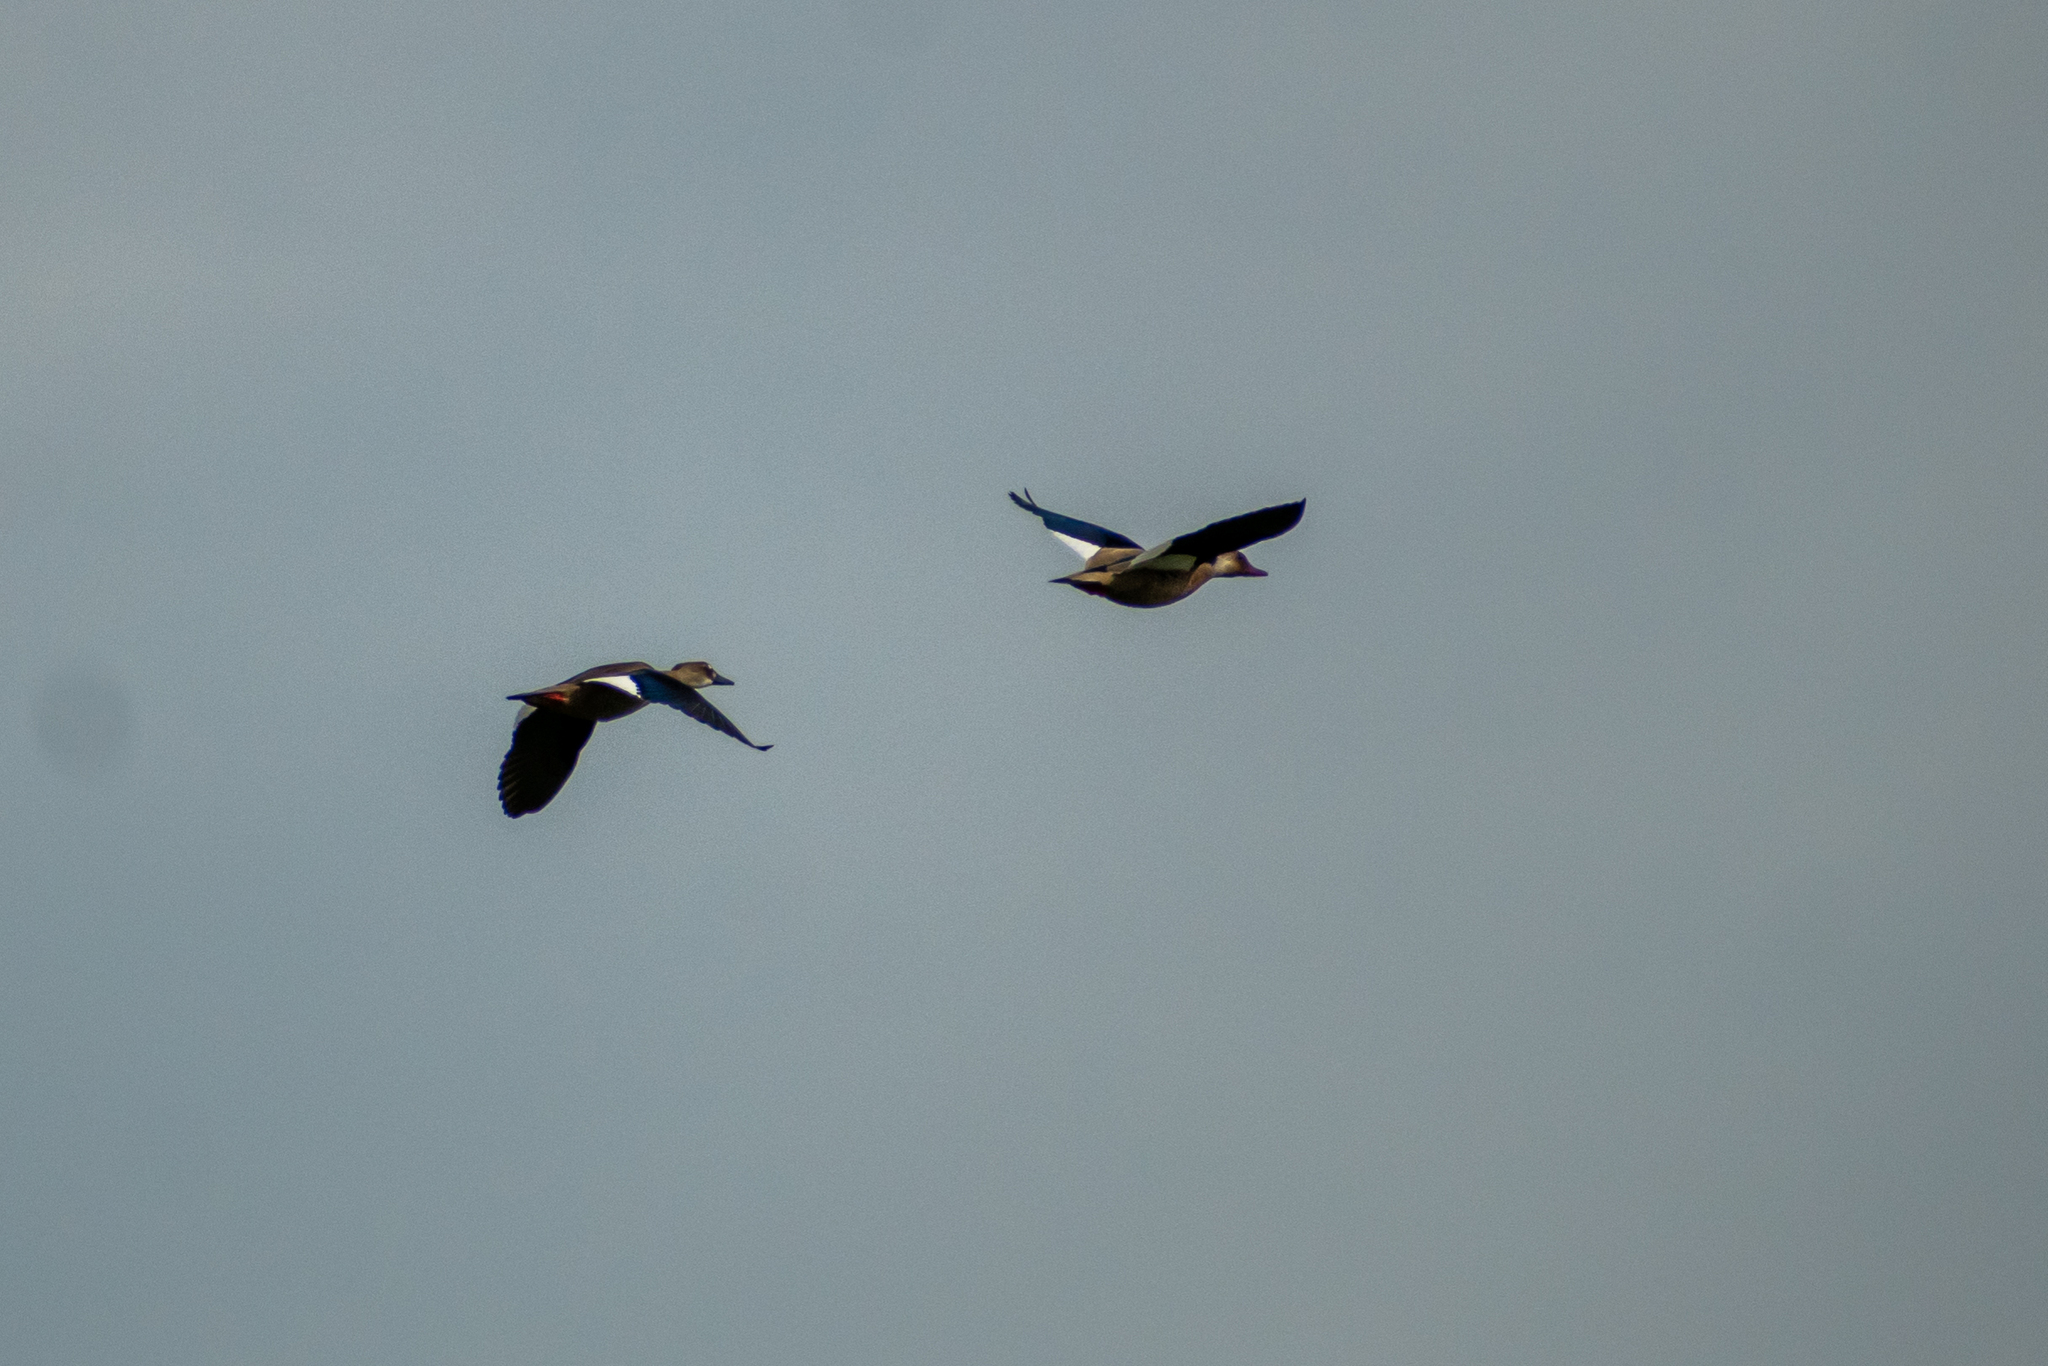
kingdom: Animalia
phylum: Chordata
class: Aves
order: Anseriformes
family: Anatidae
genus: Amazonetta
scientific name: Amazonetta brasiliensis
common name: Brazilian teal
